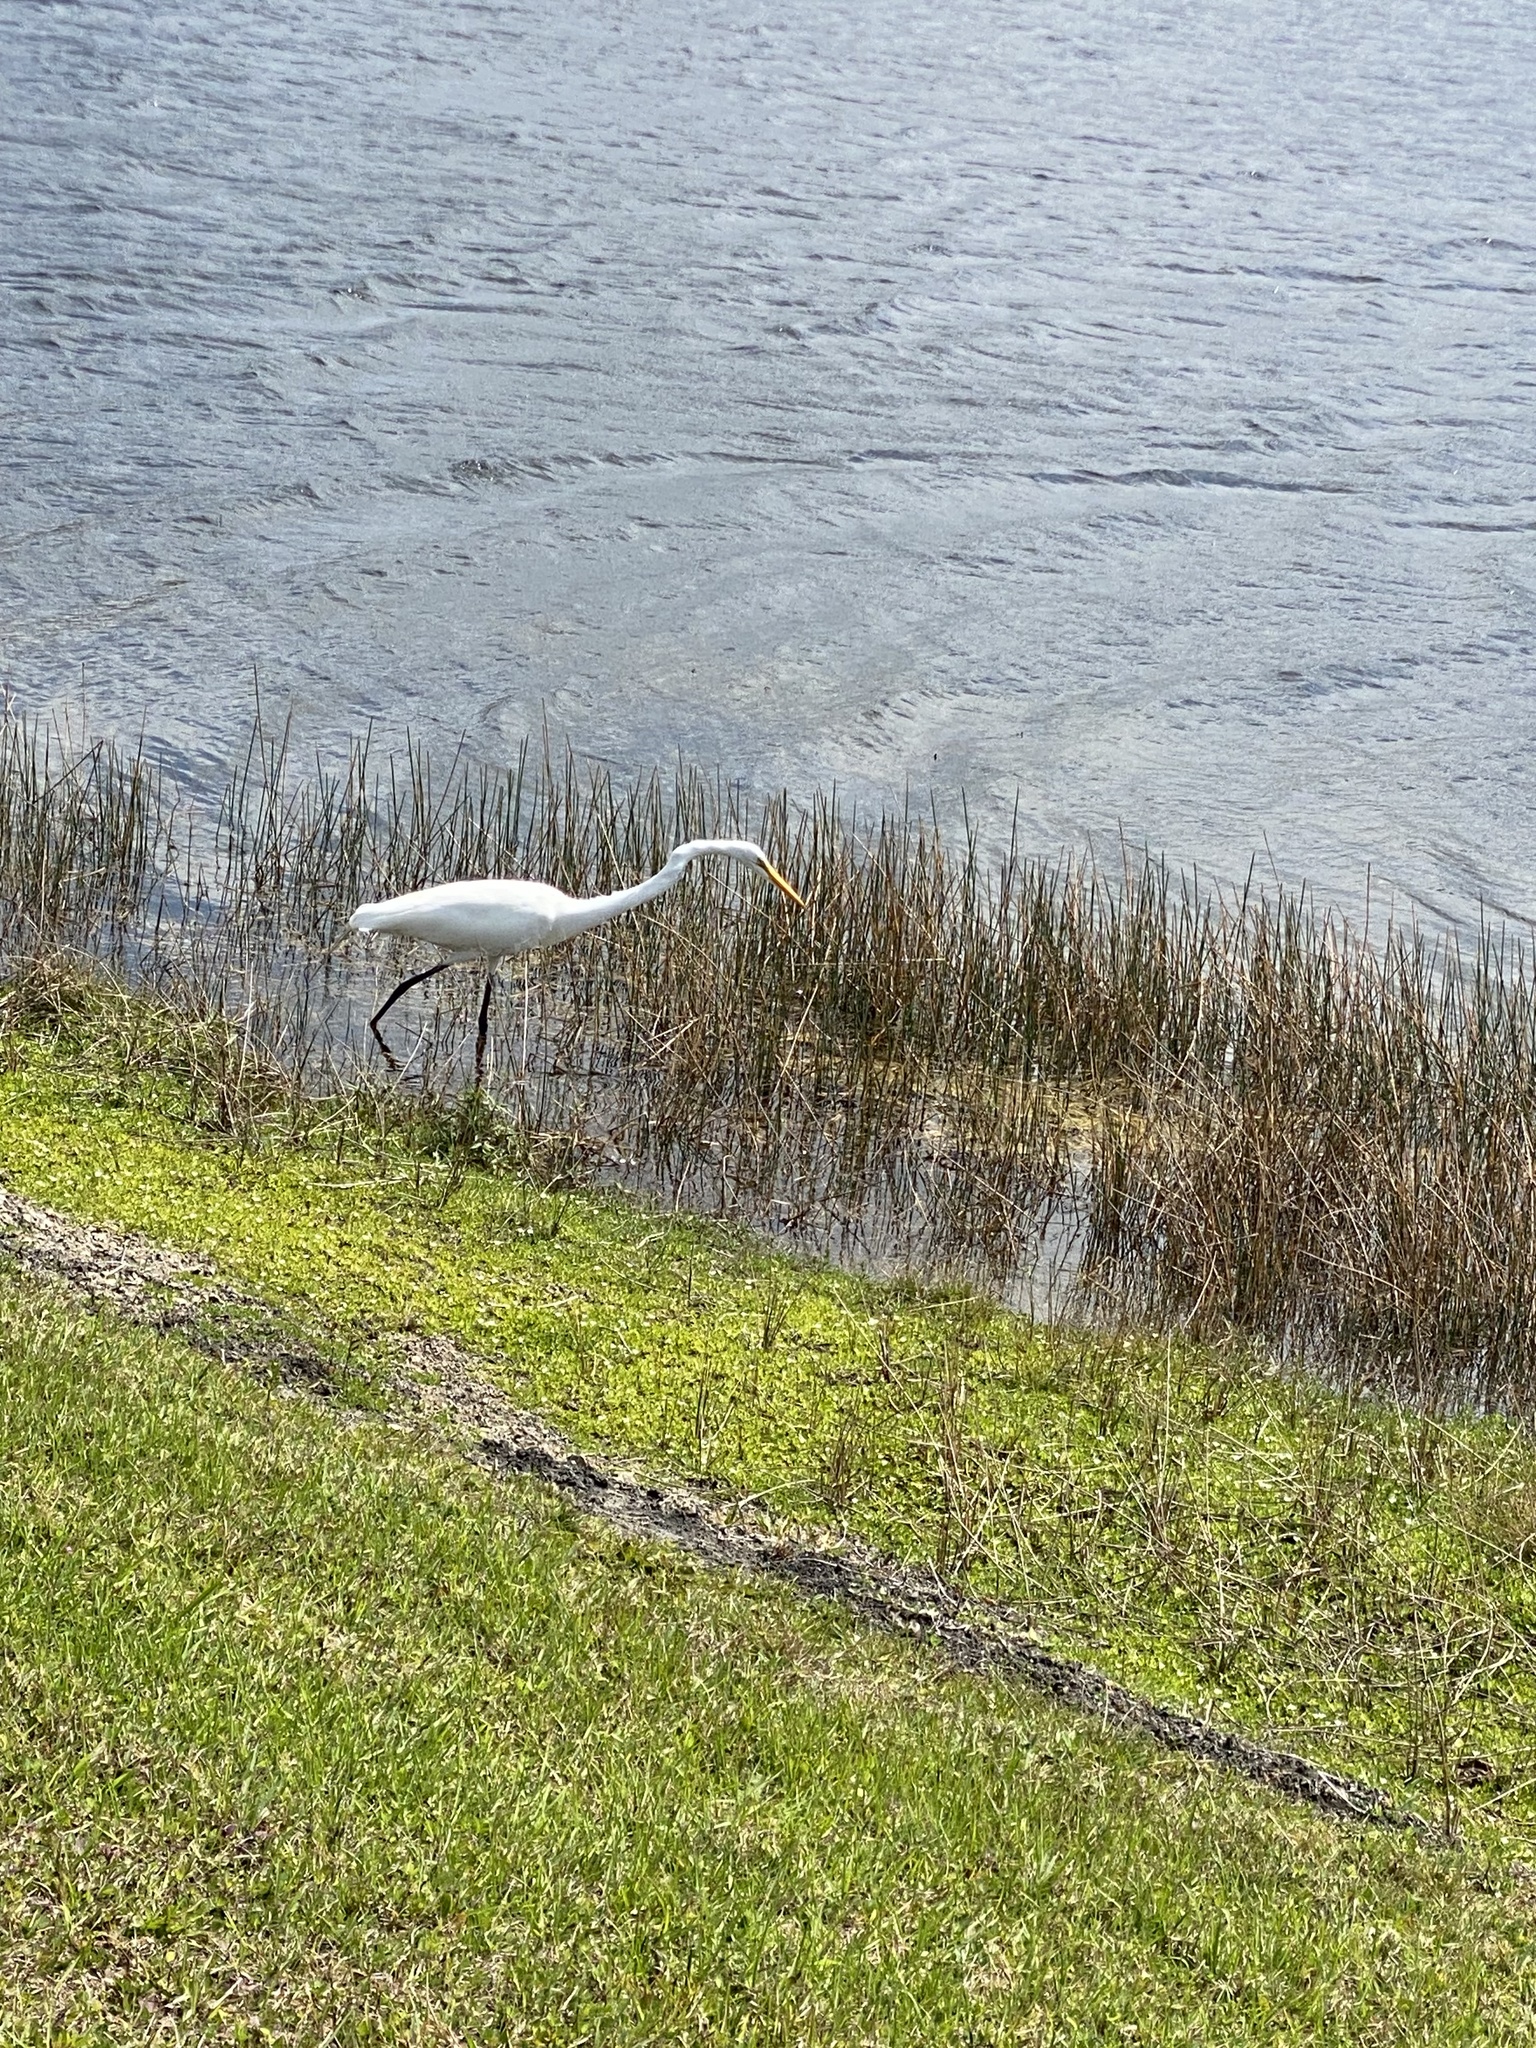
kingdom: Animalia
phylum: Chordata
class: Aves
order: Pelecaniformes
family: Ardeidae
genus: Ardea
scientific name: Ardea alba
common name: Great egret
